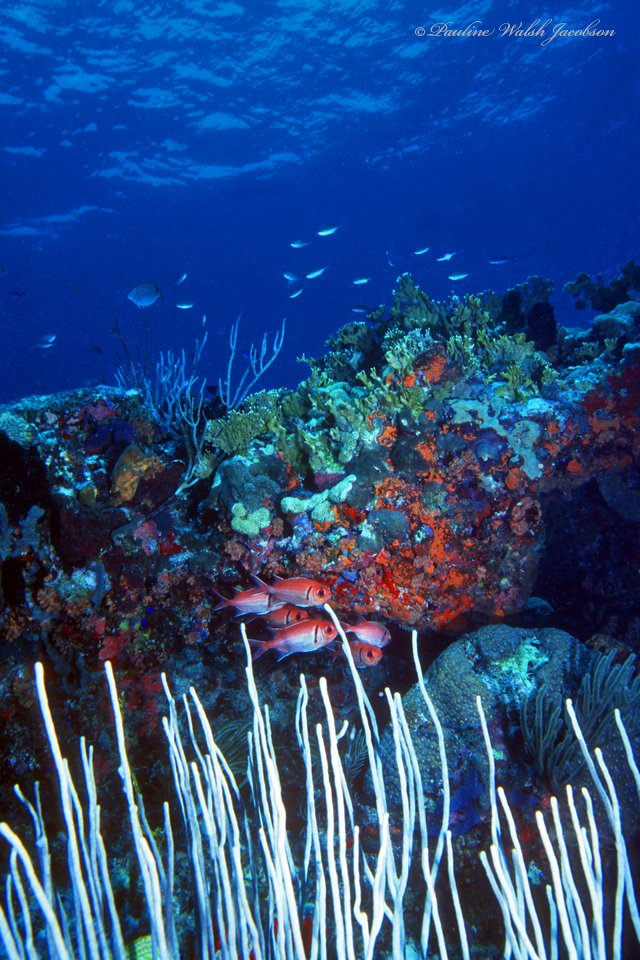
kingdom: Animalia
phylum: Chordata
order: Beryciformes
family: Holocentridae
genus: Myripristis
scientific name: Myripristis jacobus
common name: Blackbar soldierfish
